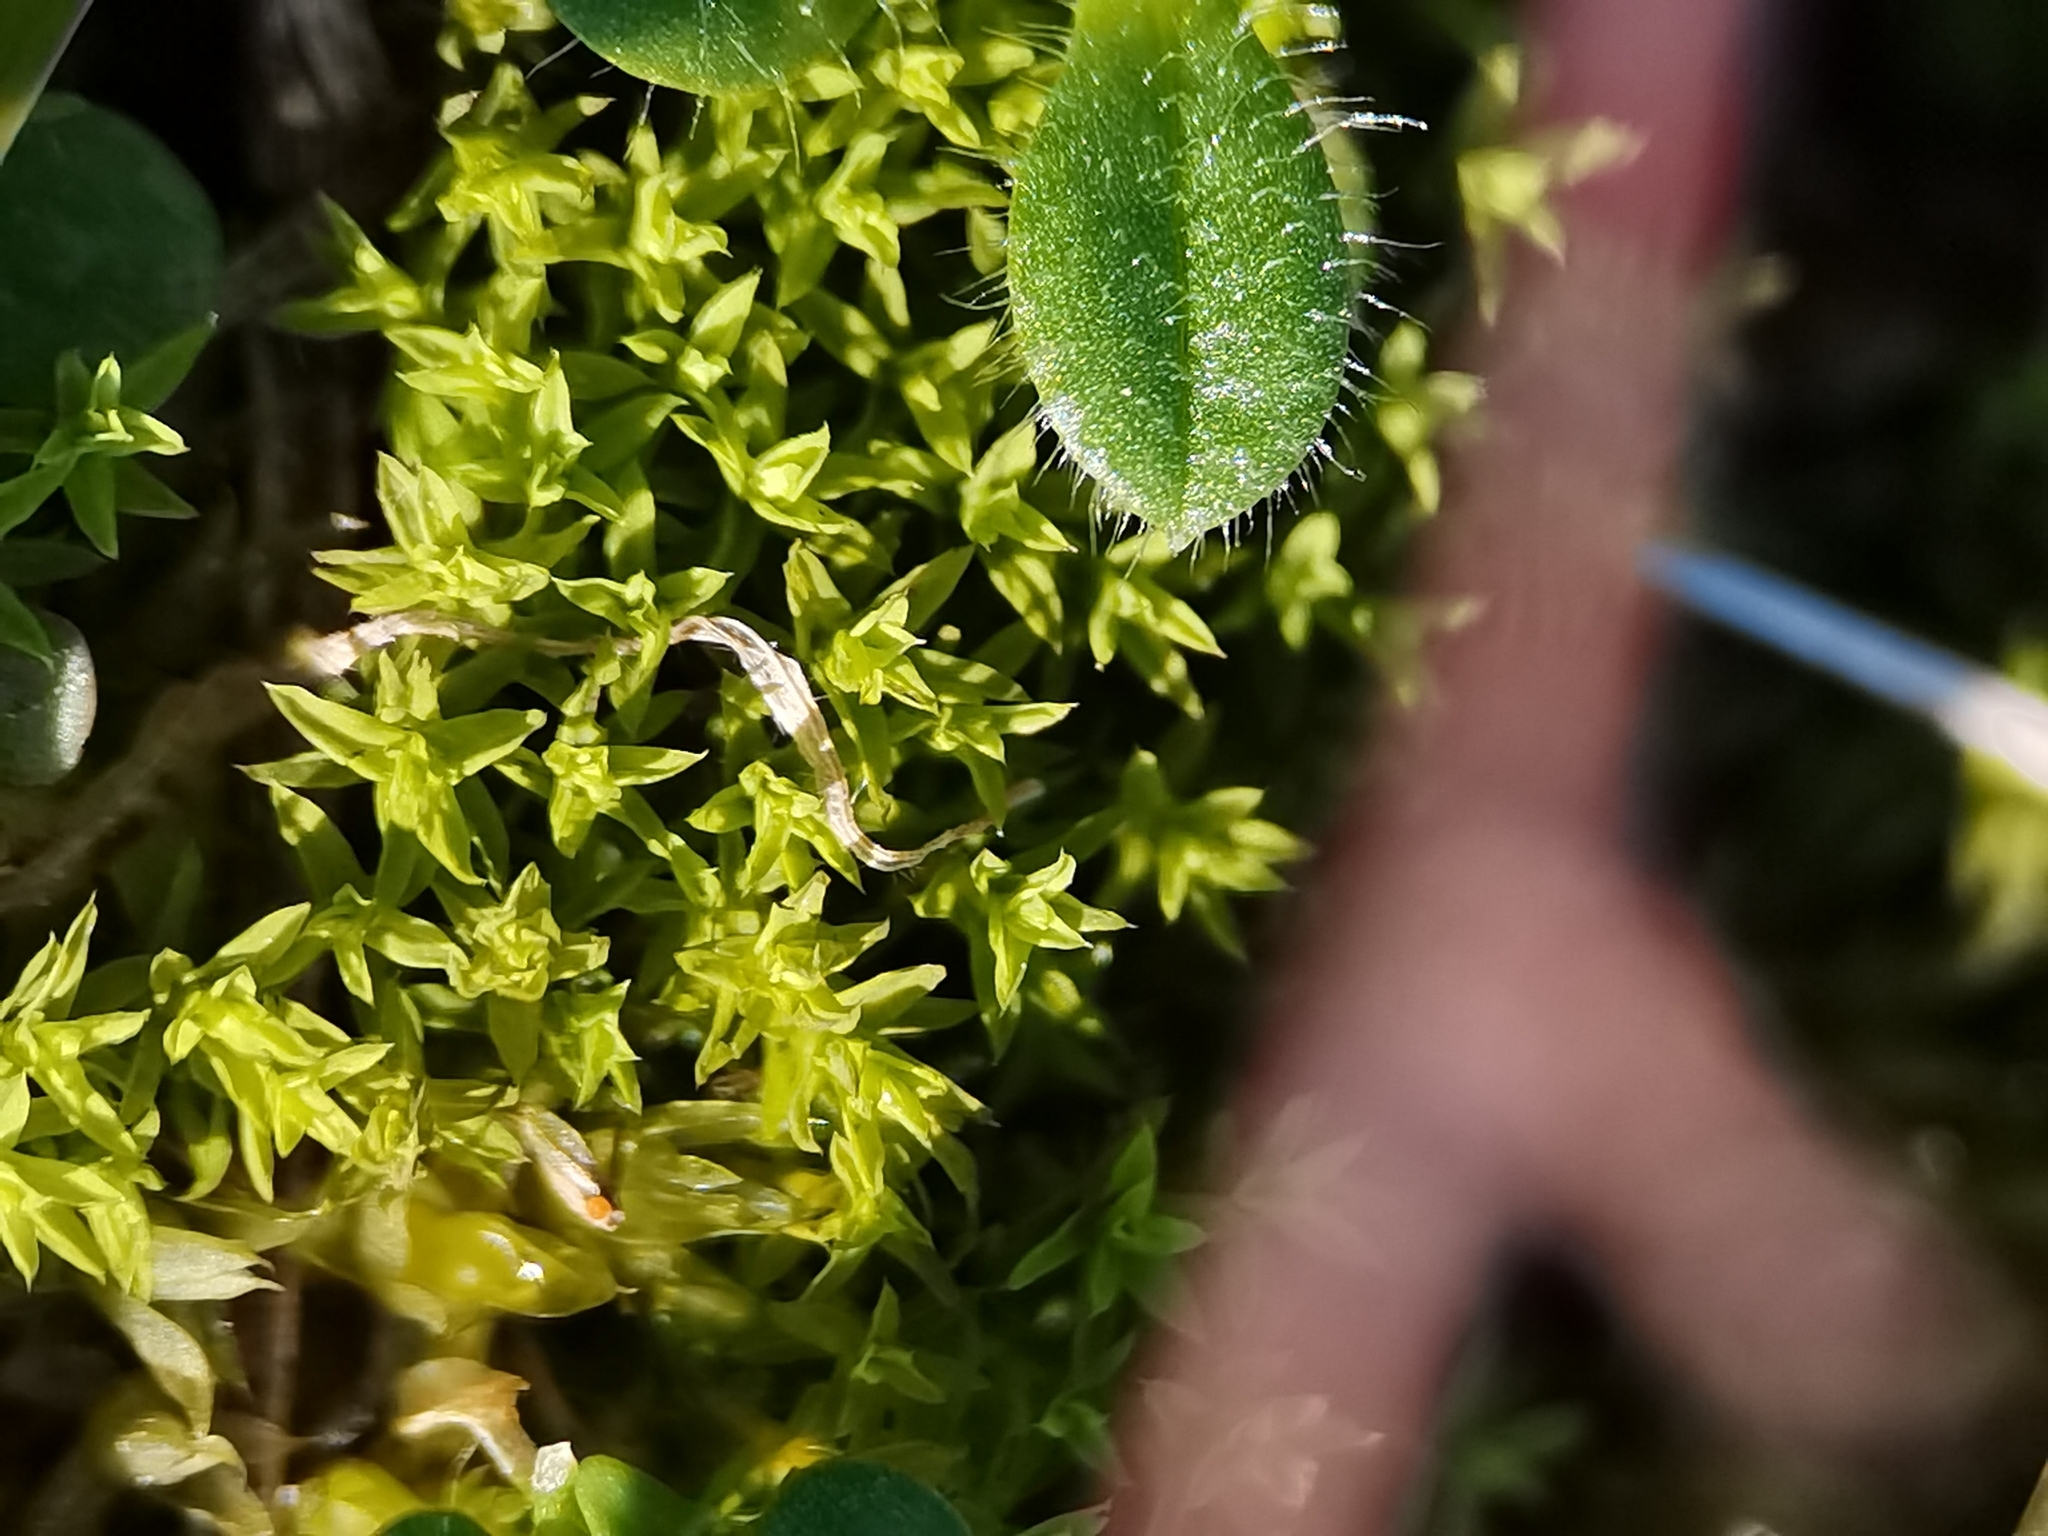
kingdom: Plantae
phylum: Bryophyta
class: Bryopsida
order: Pottiales
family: Pottiaceae
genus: Barbula
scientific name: Barbula unguiculata
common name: Prickly beard moss
